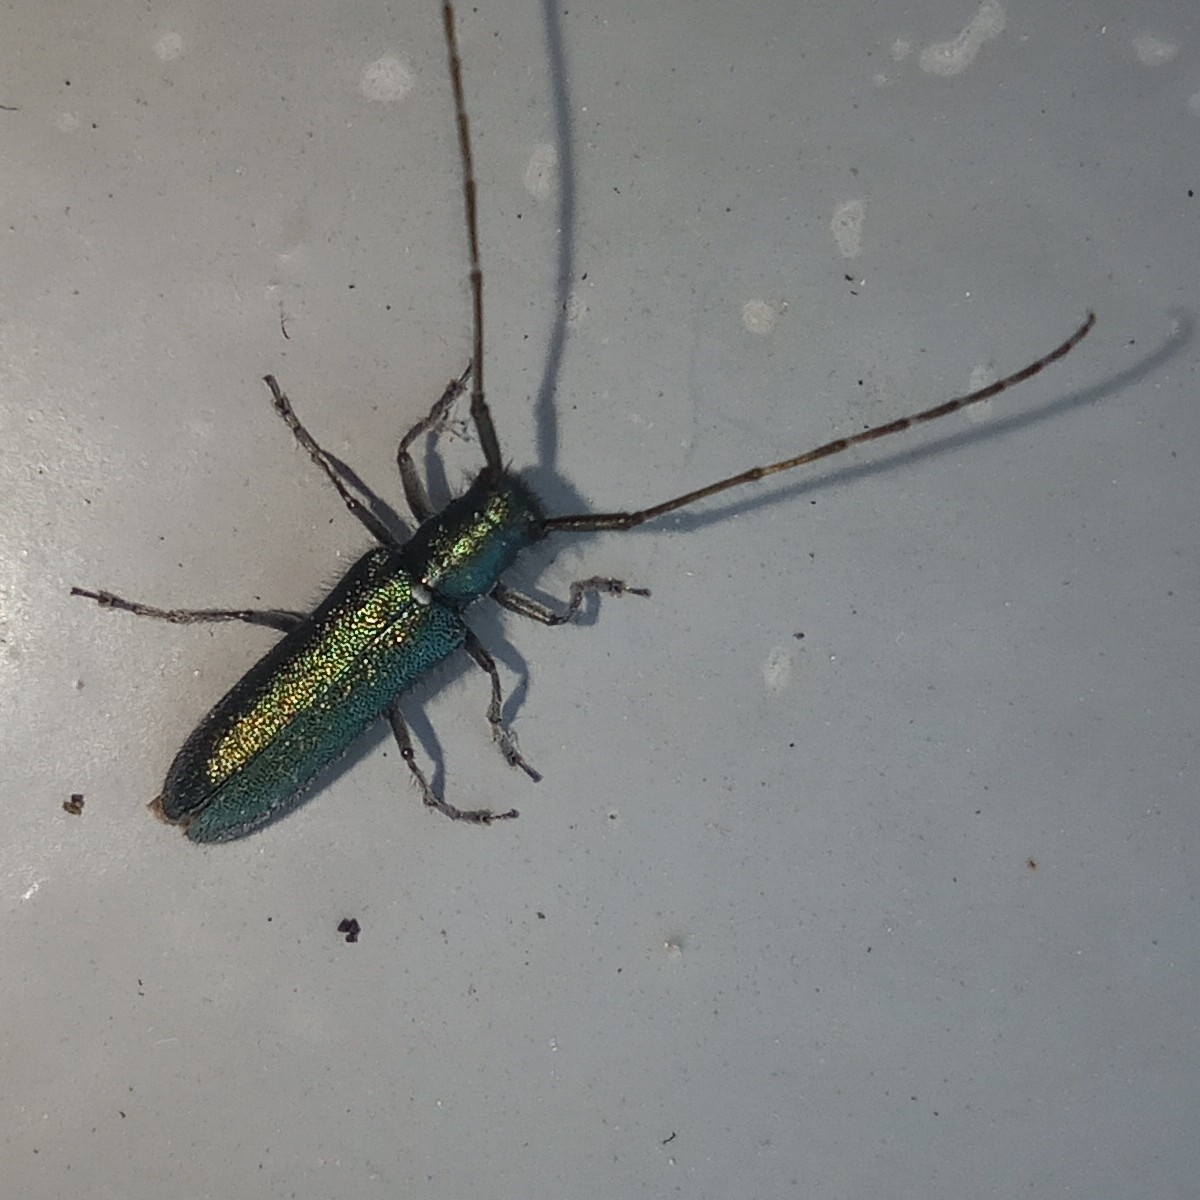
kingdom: Animalia
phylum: Arthropoda
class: Insecta
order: Coleoptera
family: Cerambycidae
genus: Agapanthia
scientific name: Agapanthia violacea
